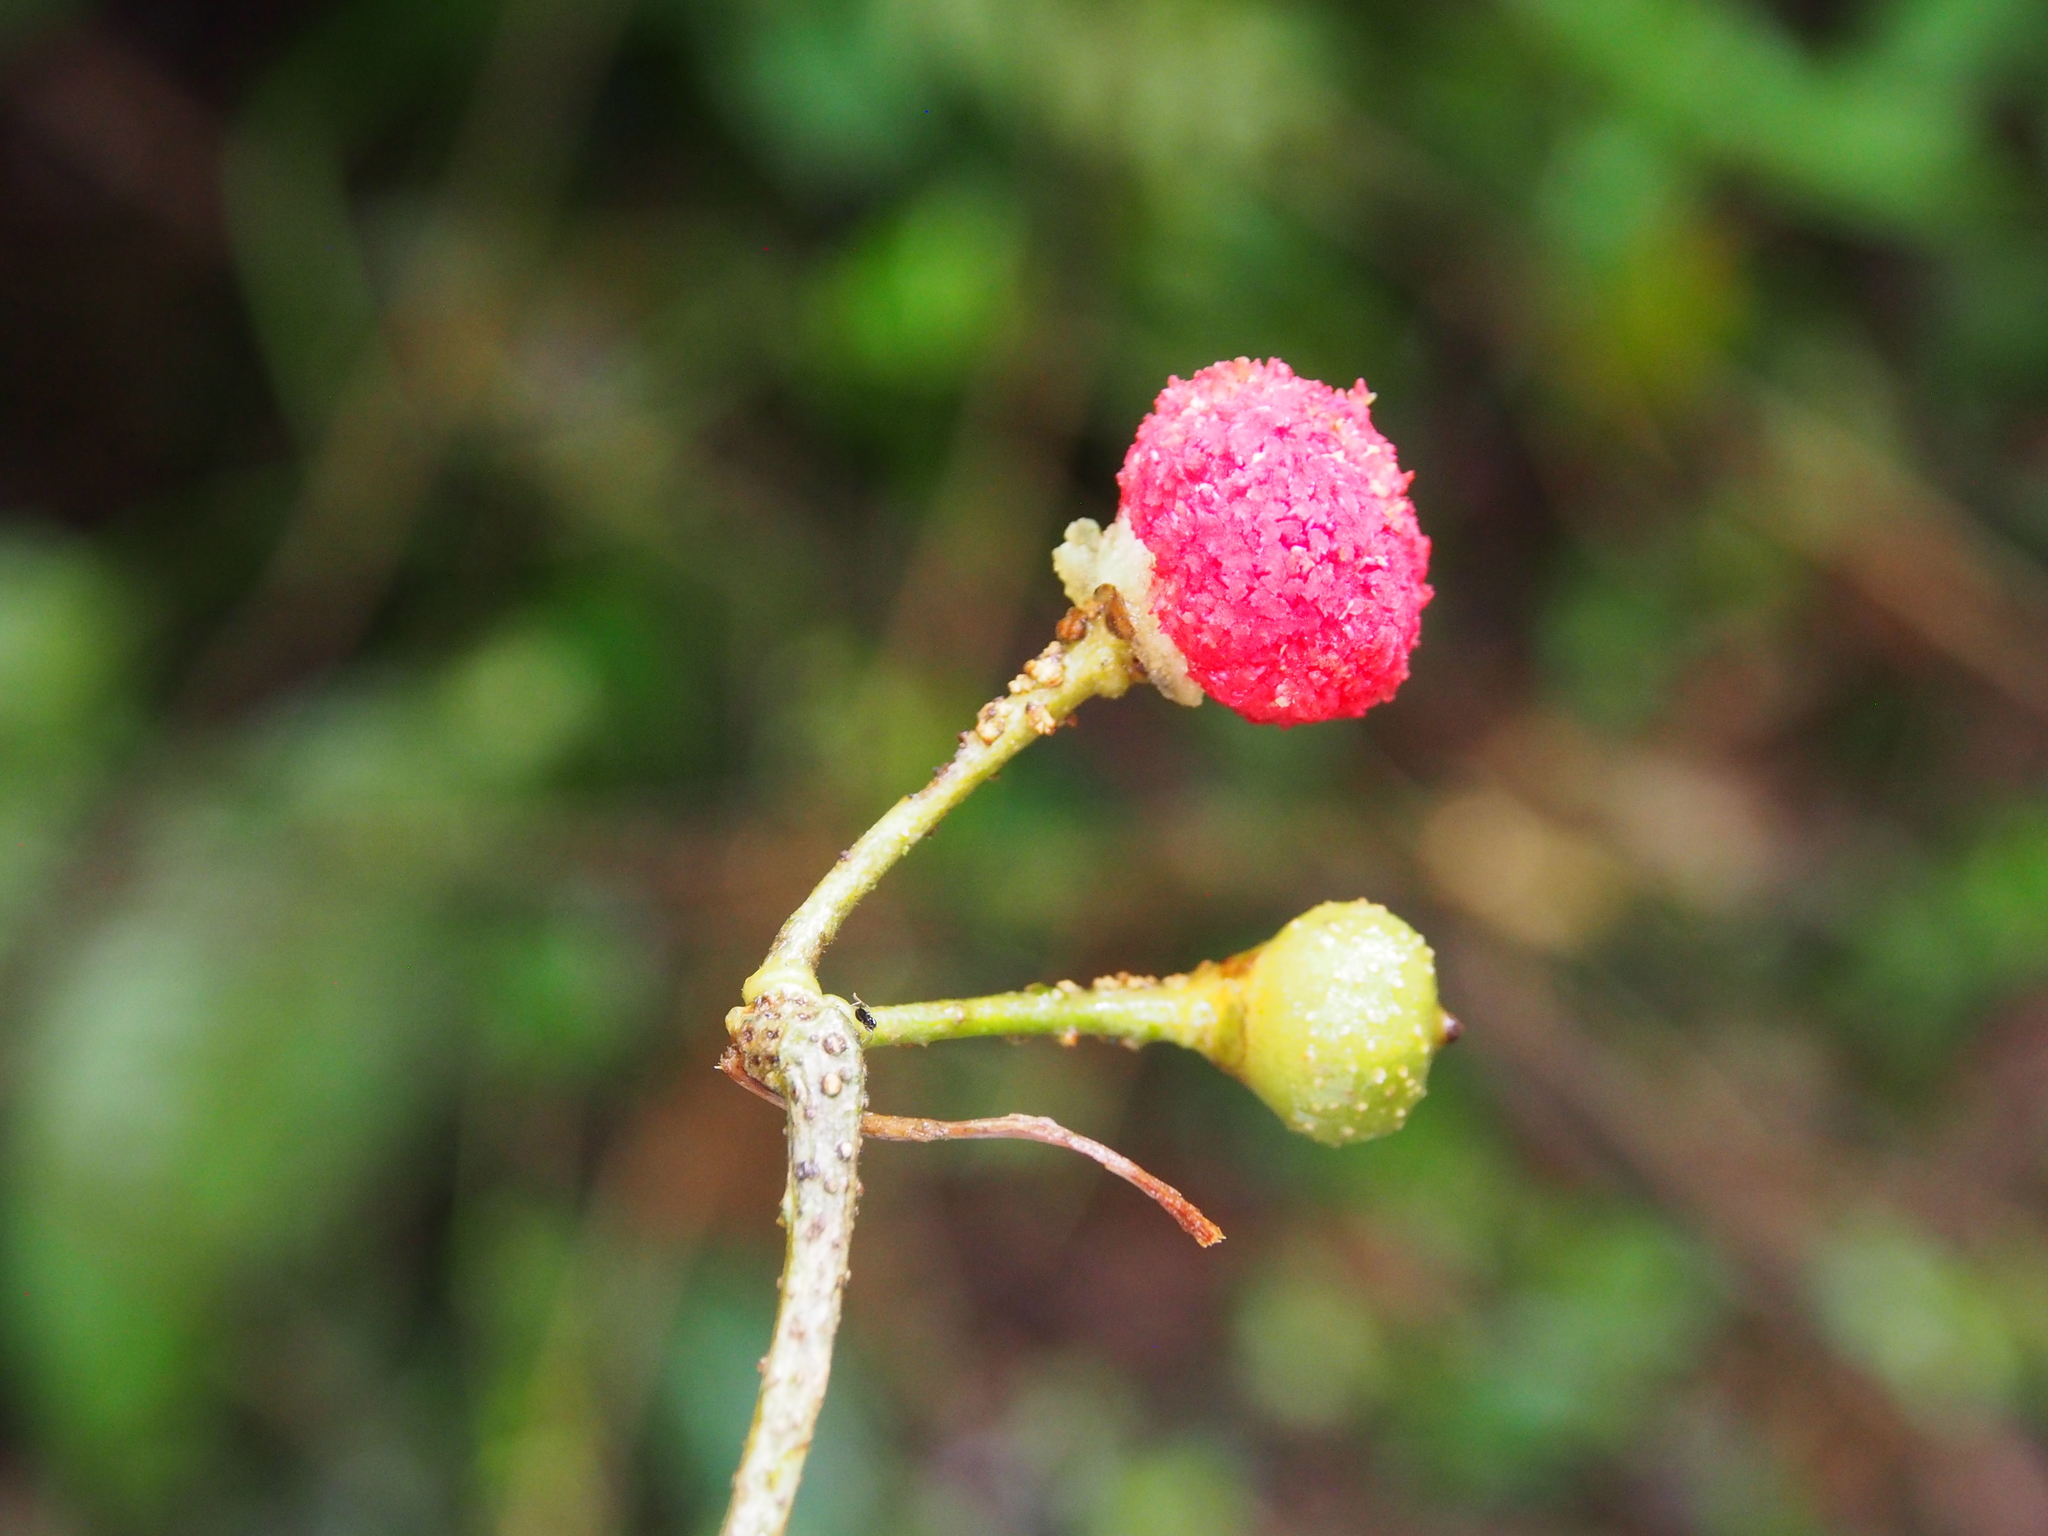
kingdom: Plantae
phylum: Tracheophyta
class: Magnoliopsida
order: Ericales
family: Marcgraviaceae
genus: Marcgravia
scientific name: Marcgravia caudata
